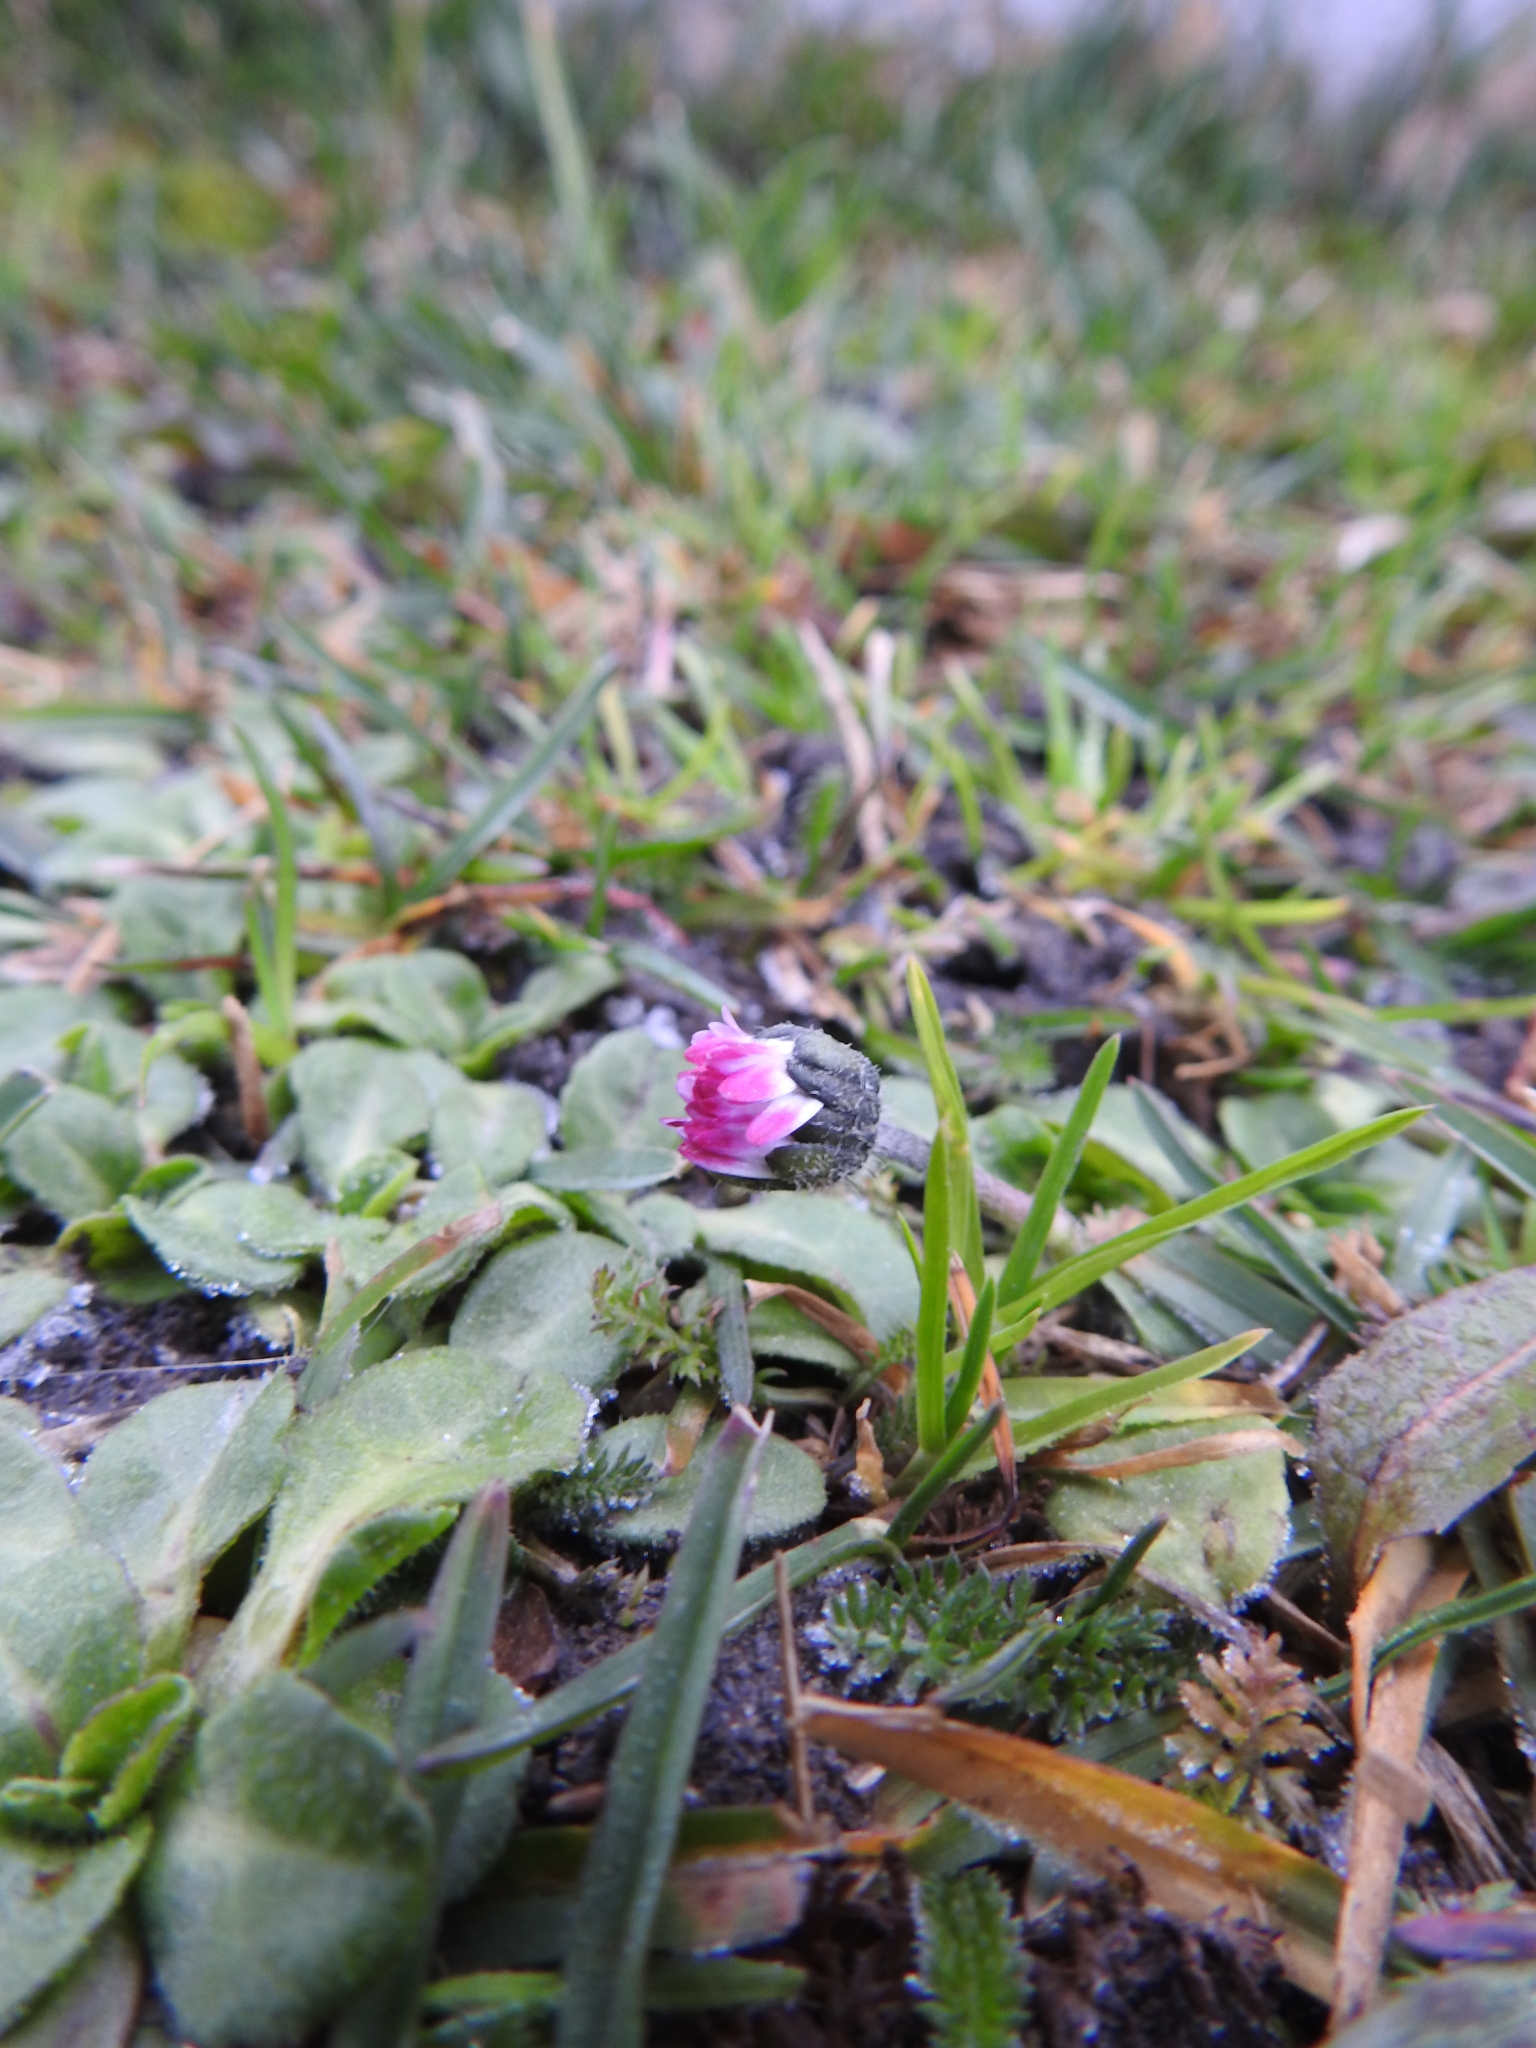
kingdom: Plantae
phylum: Tracheophyta
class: Magnoliopsida
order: Asterales
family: Asteraceae
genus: Bellis
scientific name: Bellis perennis
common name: Lawndaisy
